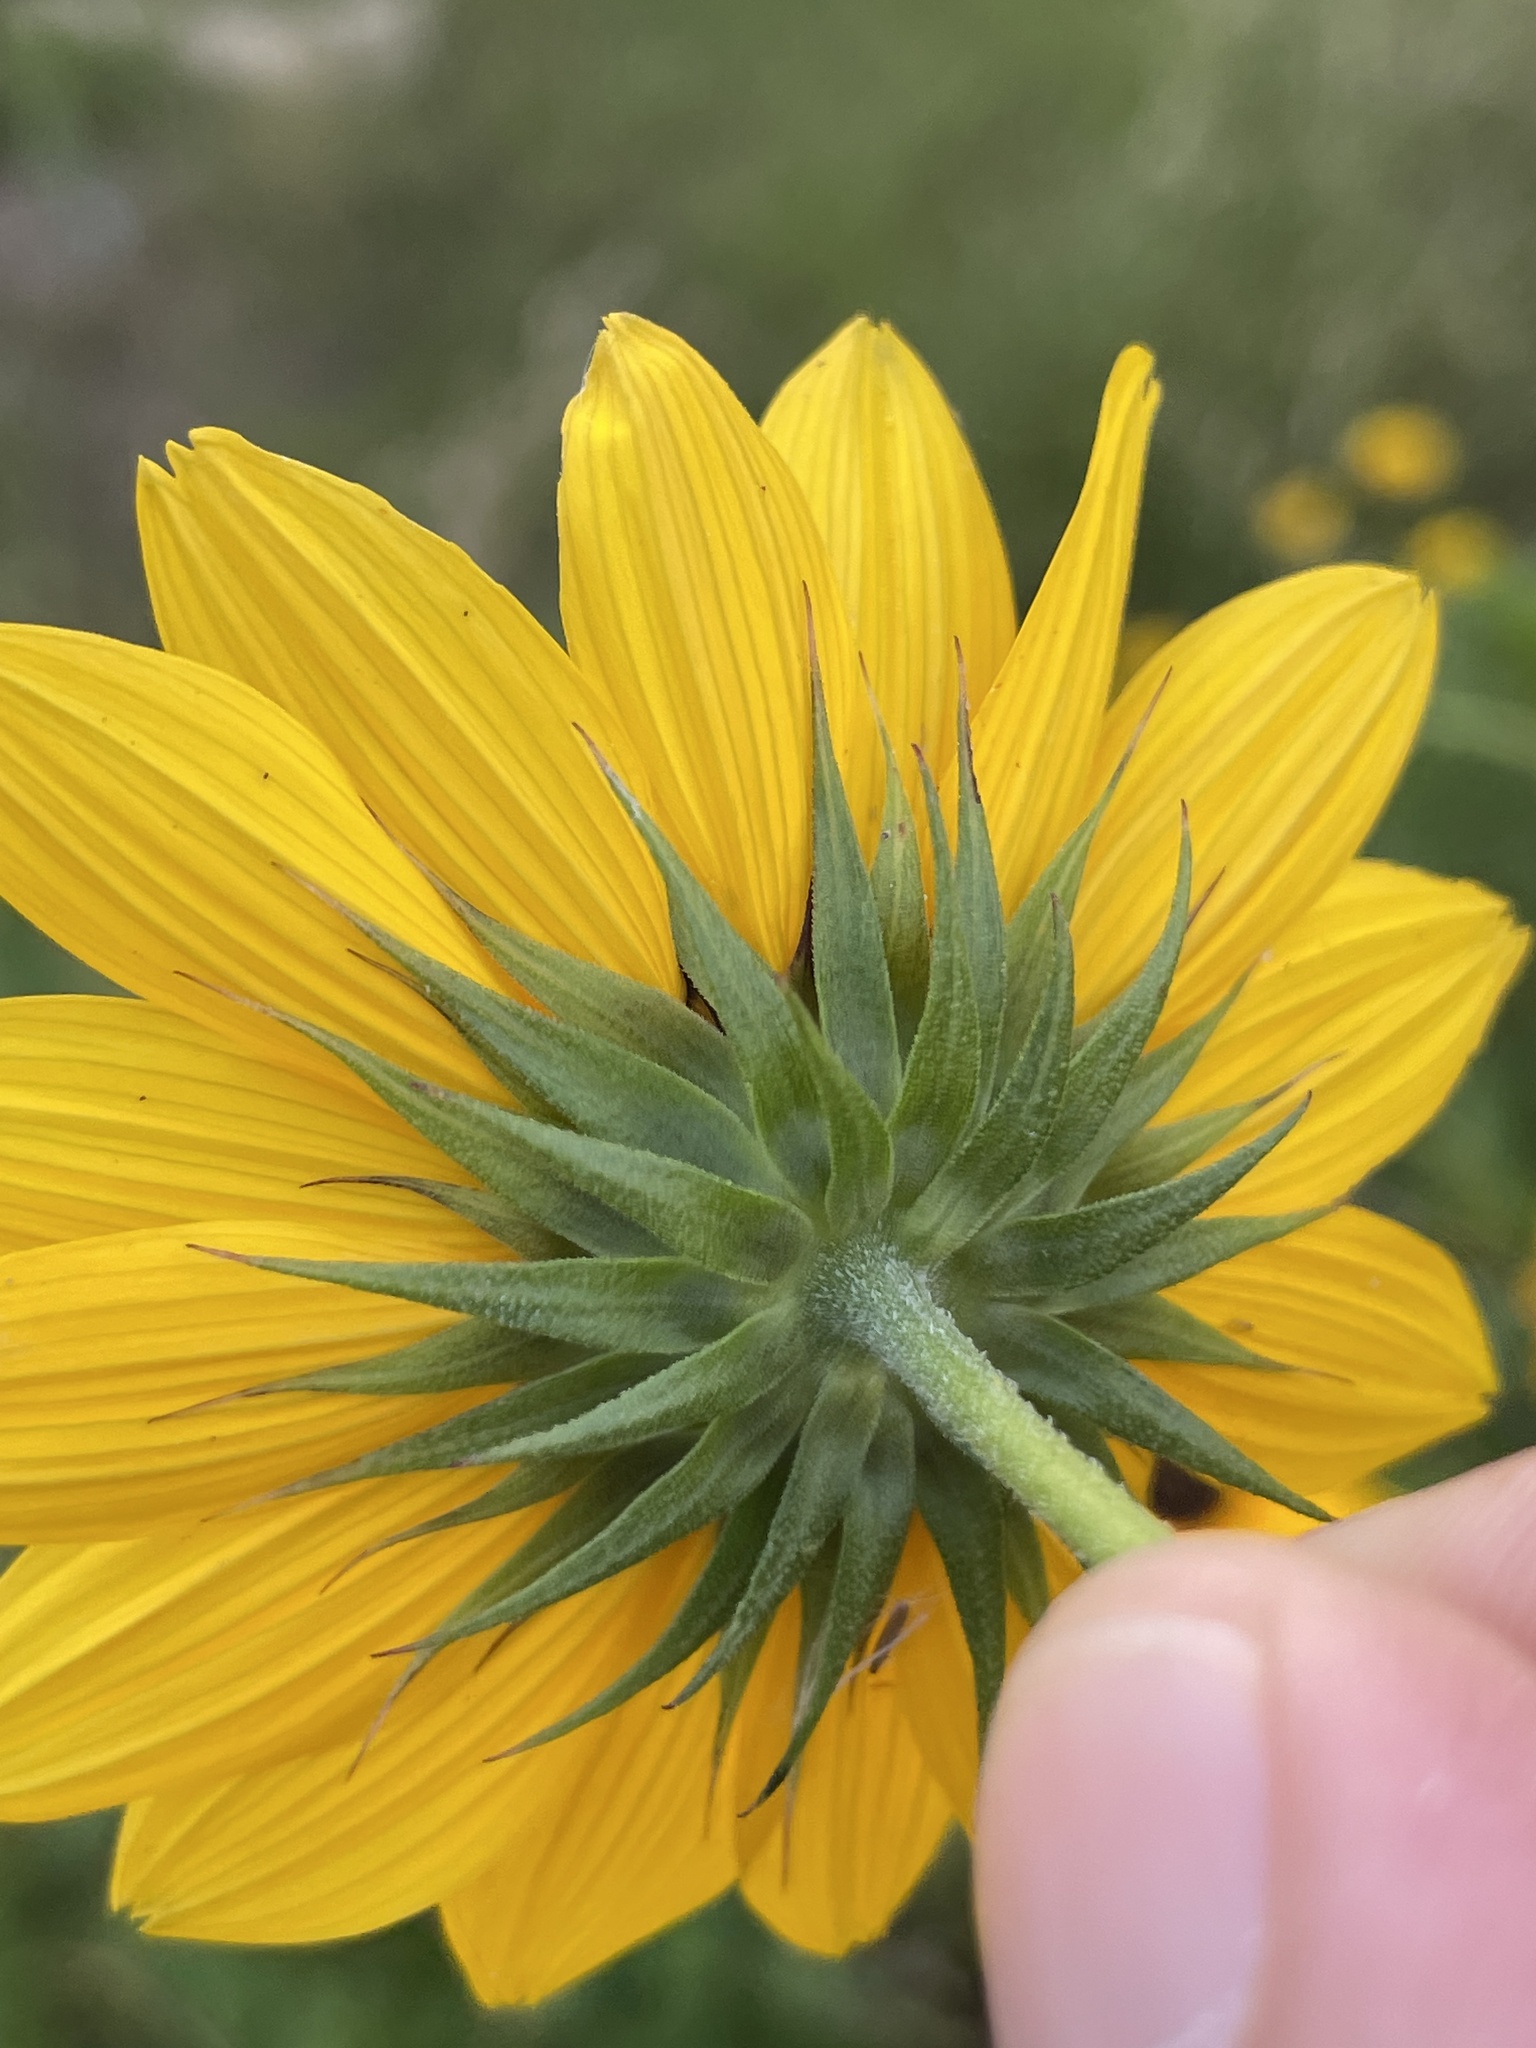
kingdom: Plantae
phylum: Tracheophyta
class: Magnoliopsida
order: Asterales
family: Asteraceae
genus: Helianthus
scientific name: Helianthus debilis
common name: Weak sunflower
